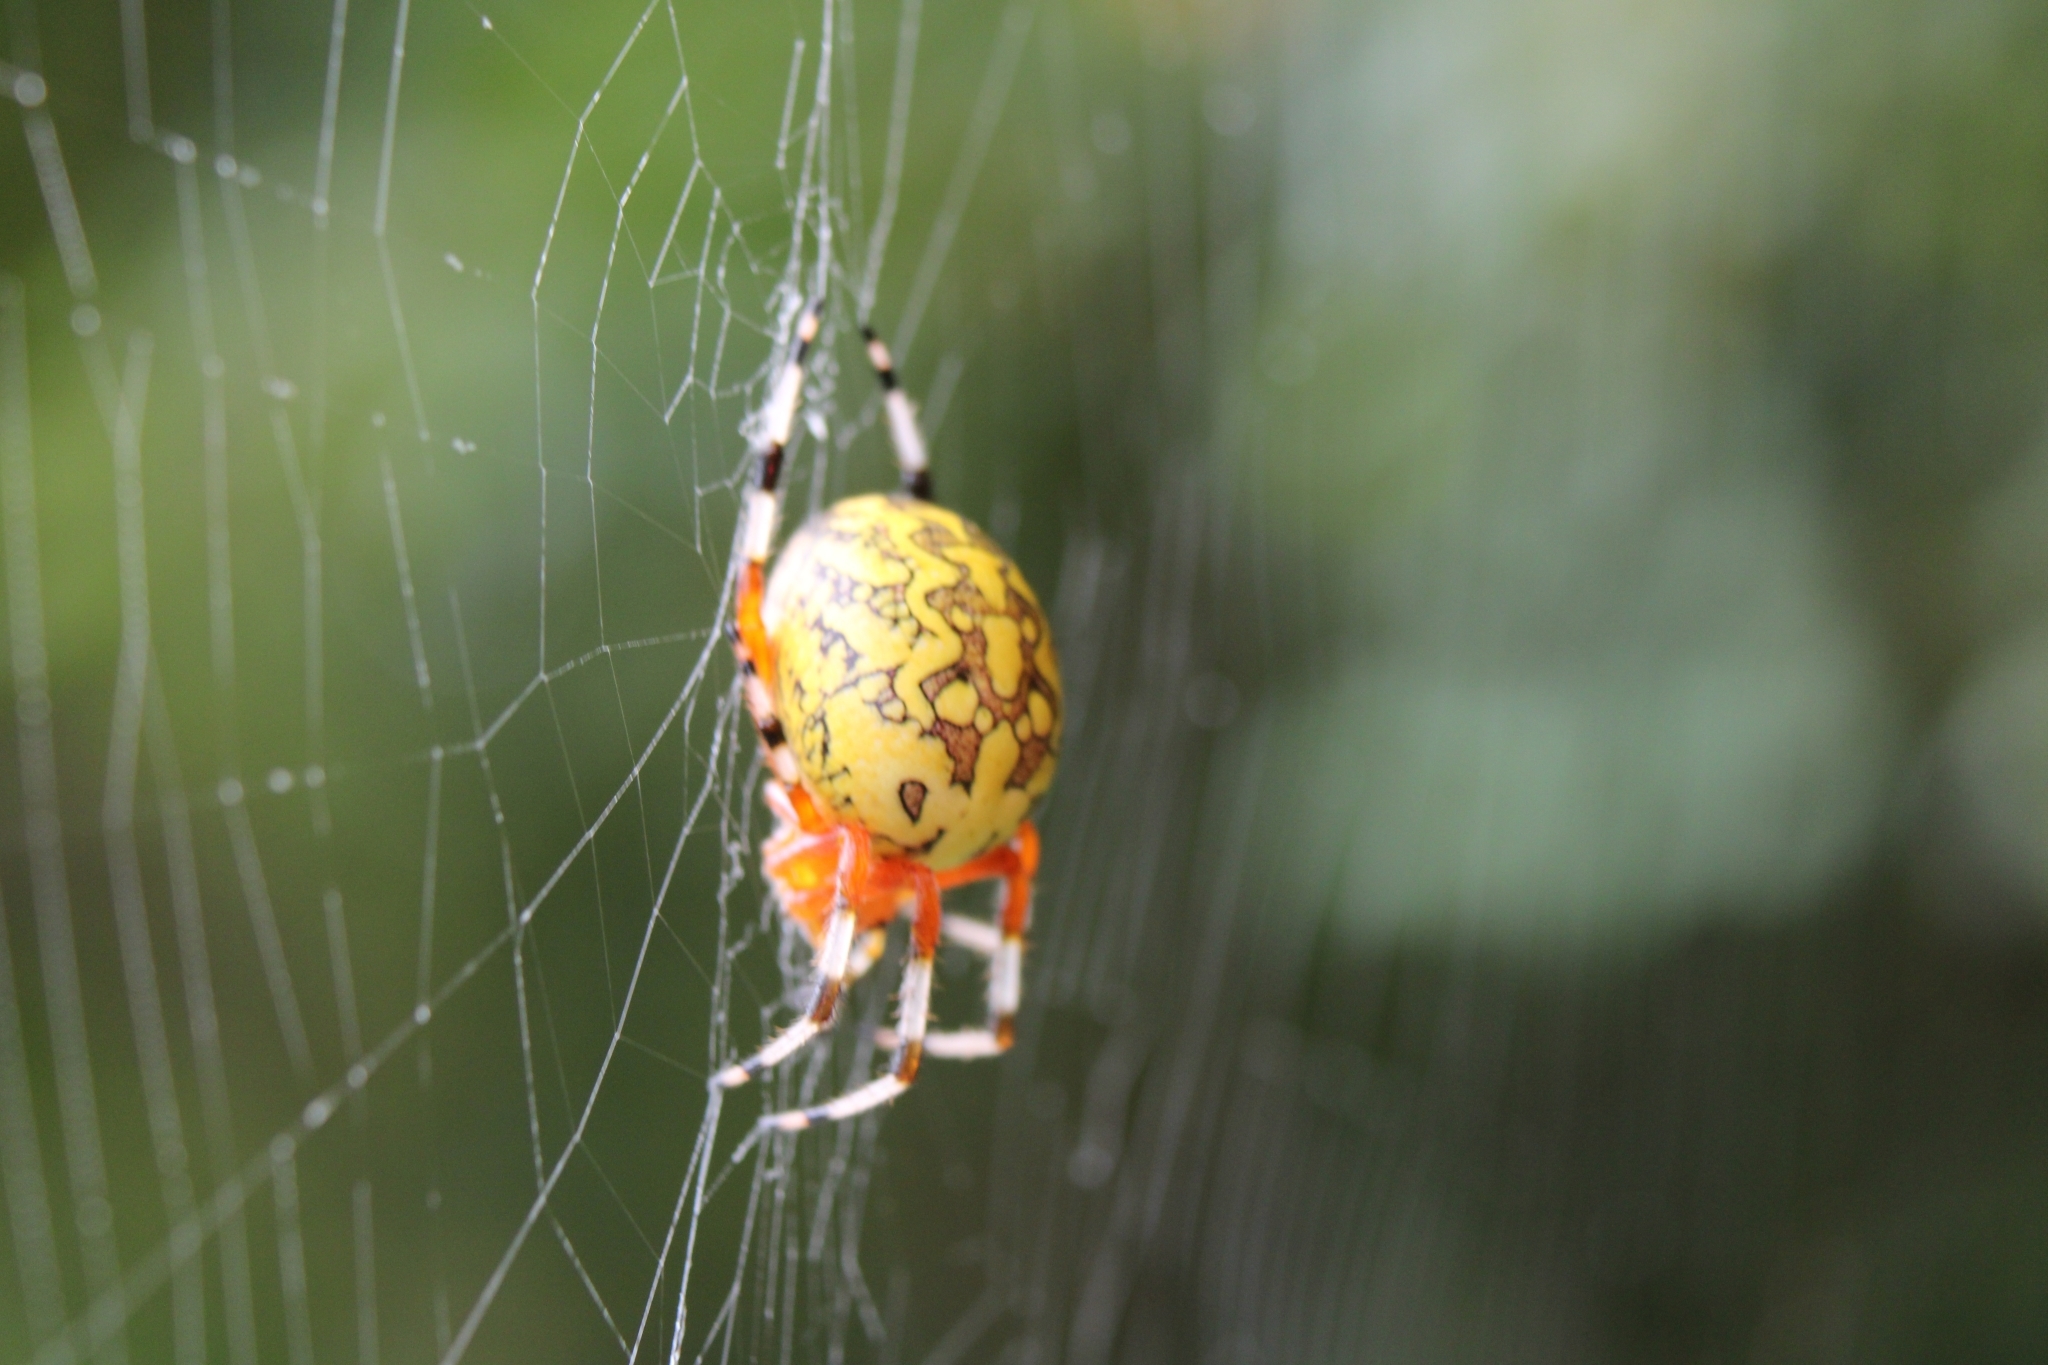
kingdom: Animalia
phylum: Arthropoda
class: Arachnida
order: Araneae
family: Araneidae
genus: Araneus
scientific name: Araneus marmoreus
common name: Marbled orbweaver
